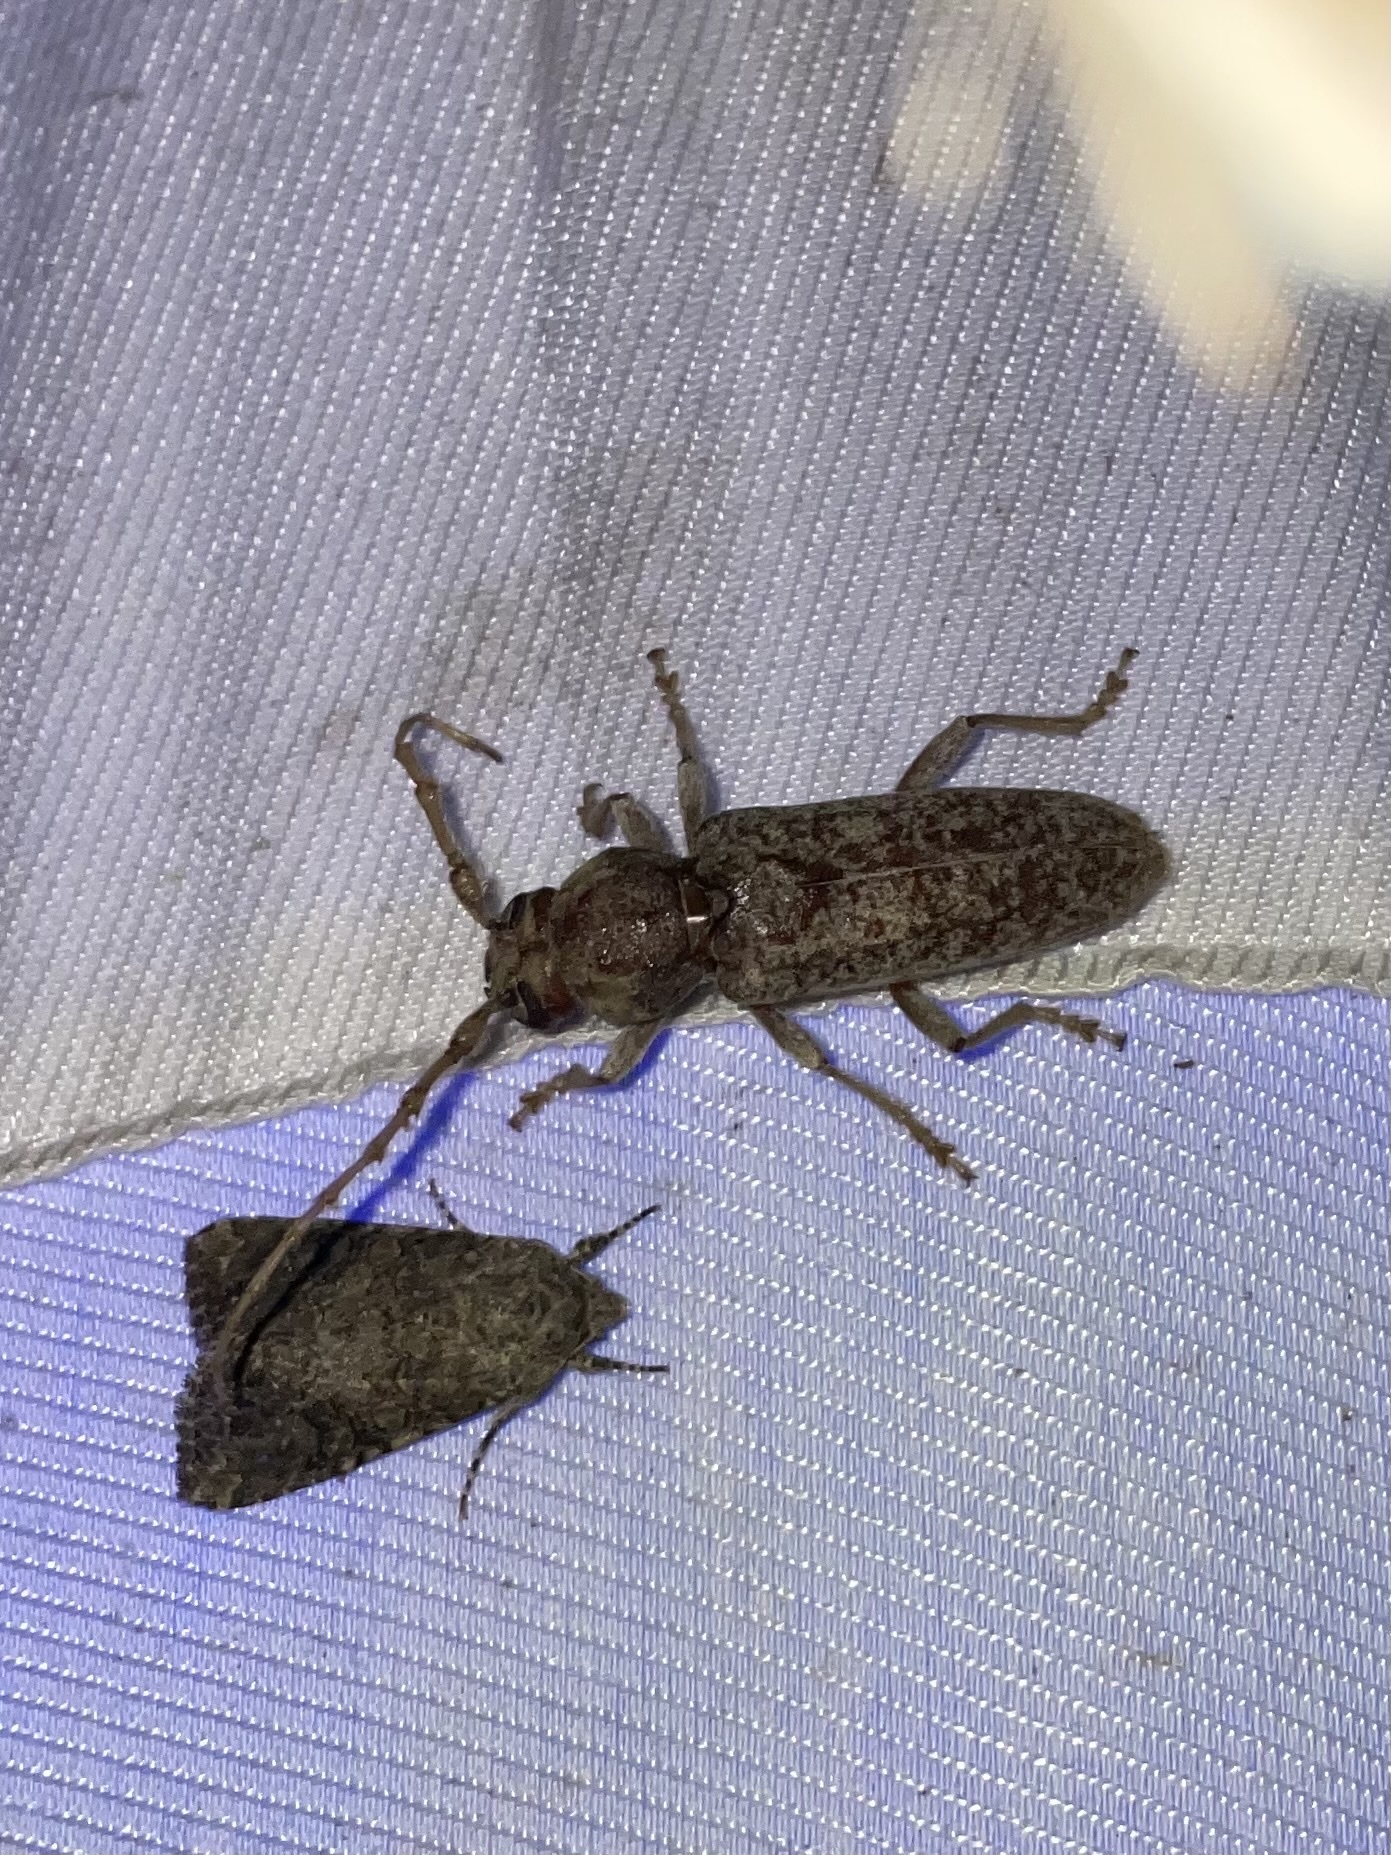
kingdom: Animalia
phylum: Arthropoda
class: Insecta
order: Coleoptera
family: Cerambycidae
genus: Enaphalodes
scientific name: Enaphalodes rufulus
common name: Red oak borer
